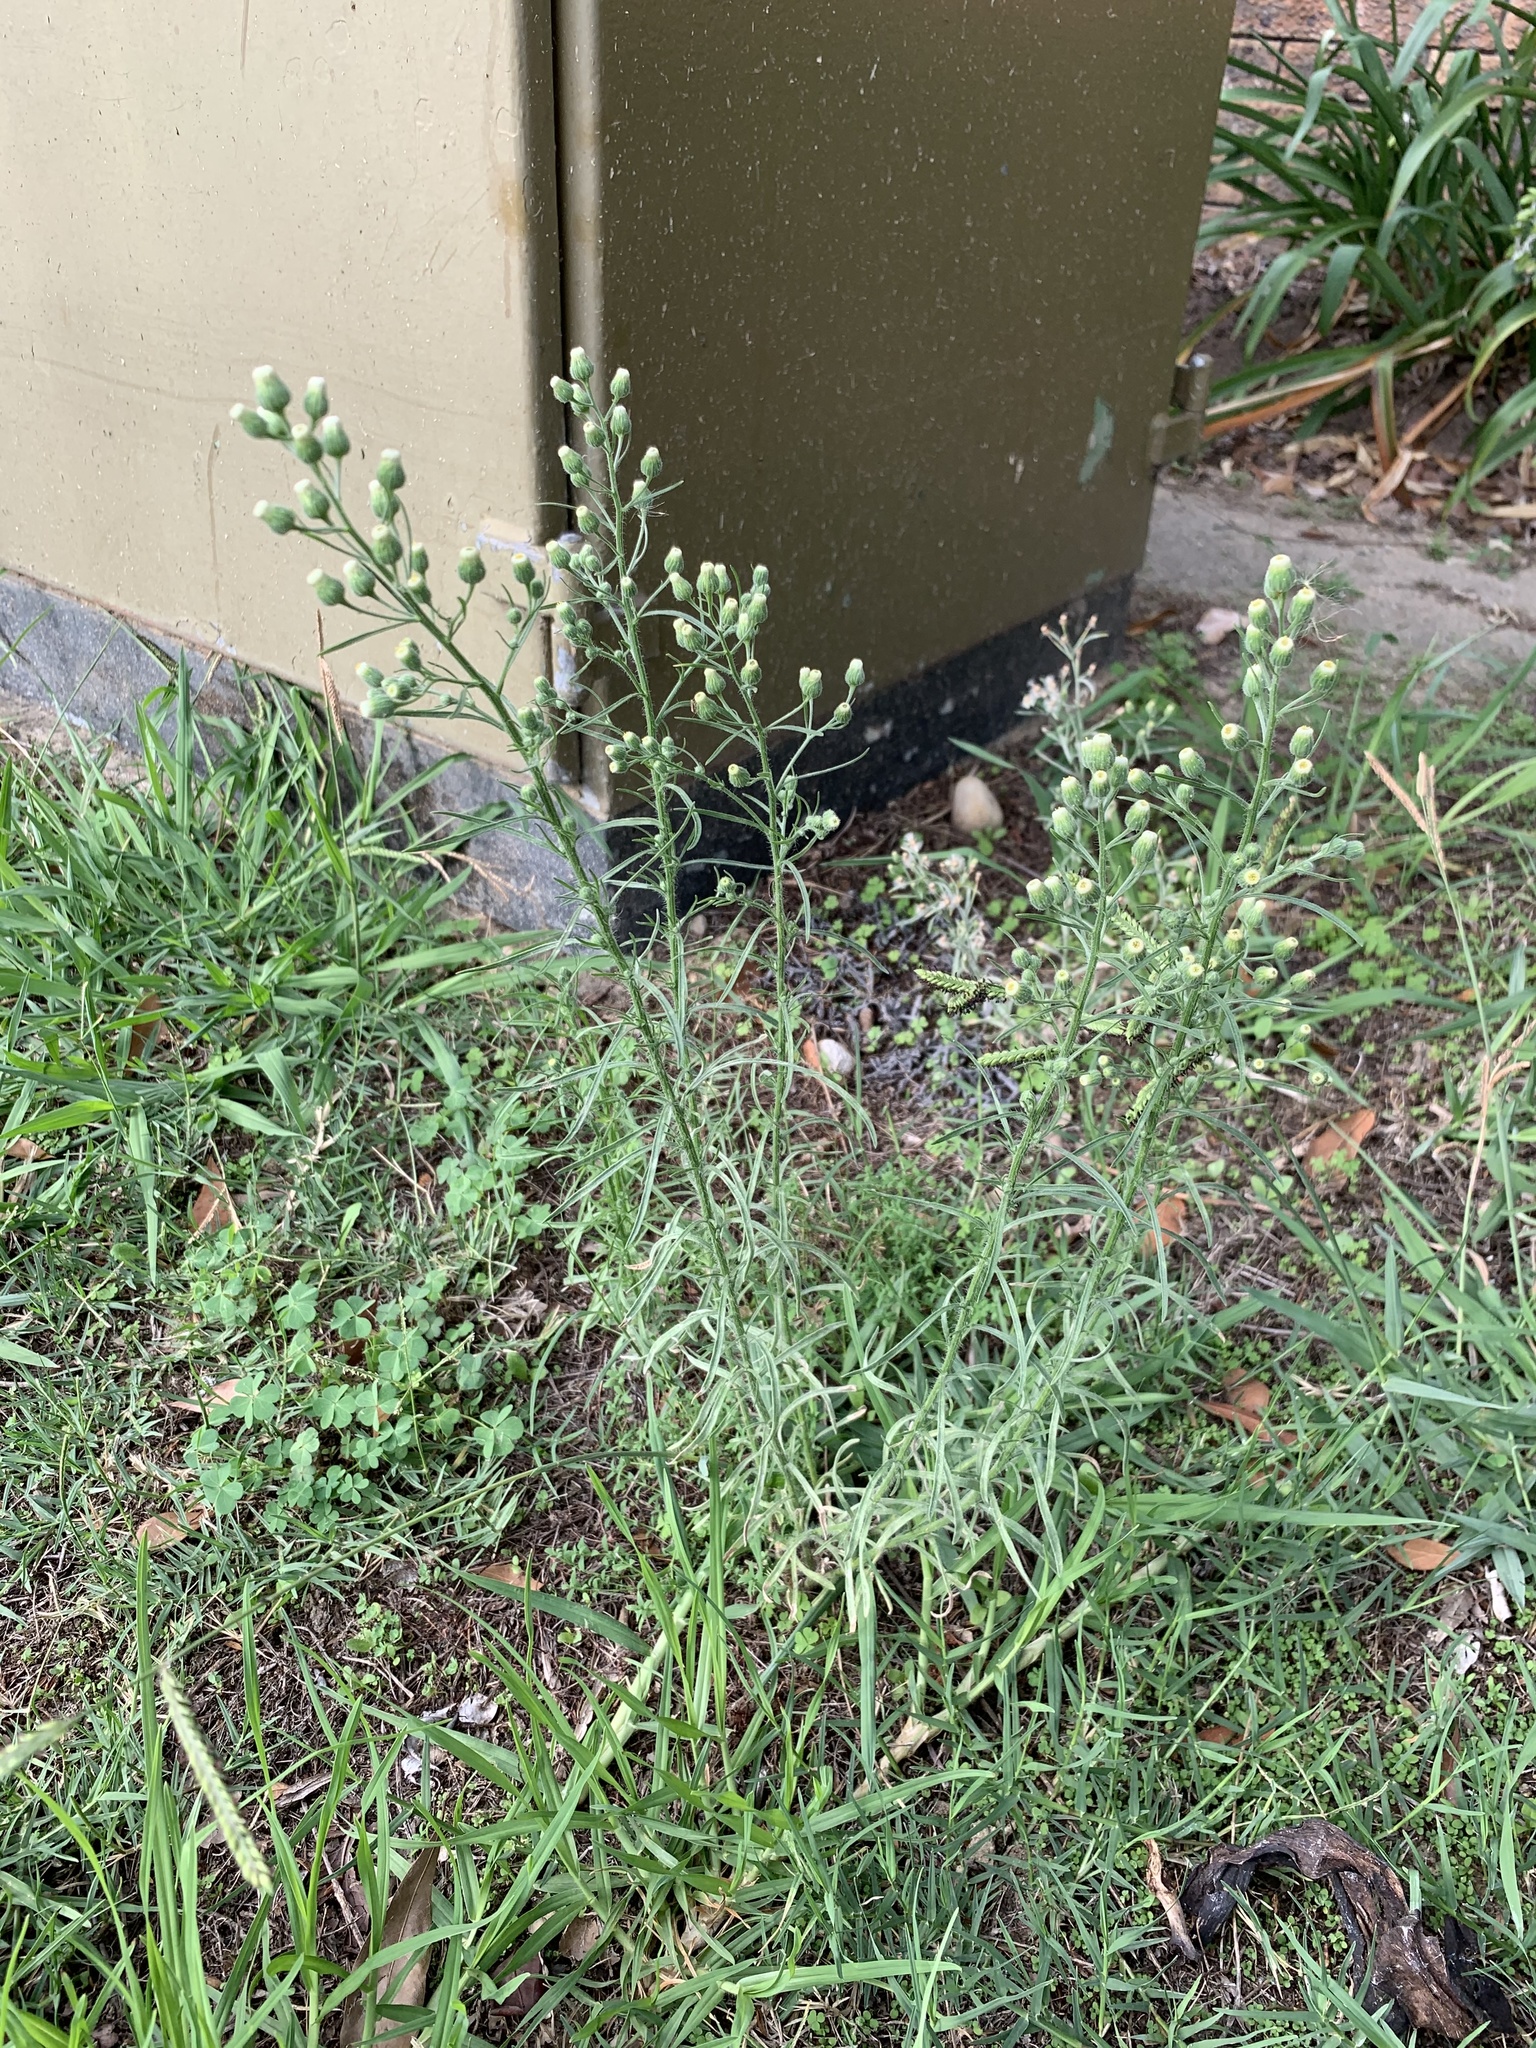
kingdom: Plantae
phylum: Tracheophyta
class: Magnoliopsida
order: Asterales
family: Asteraceae
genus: Erigeron
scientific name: Erigeron bonariensis
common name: Argentine fleabane
